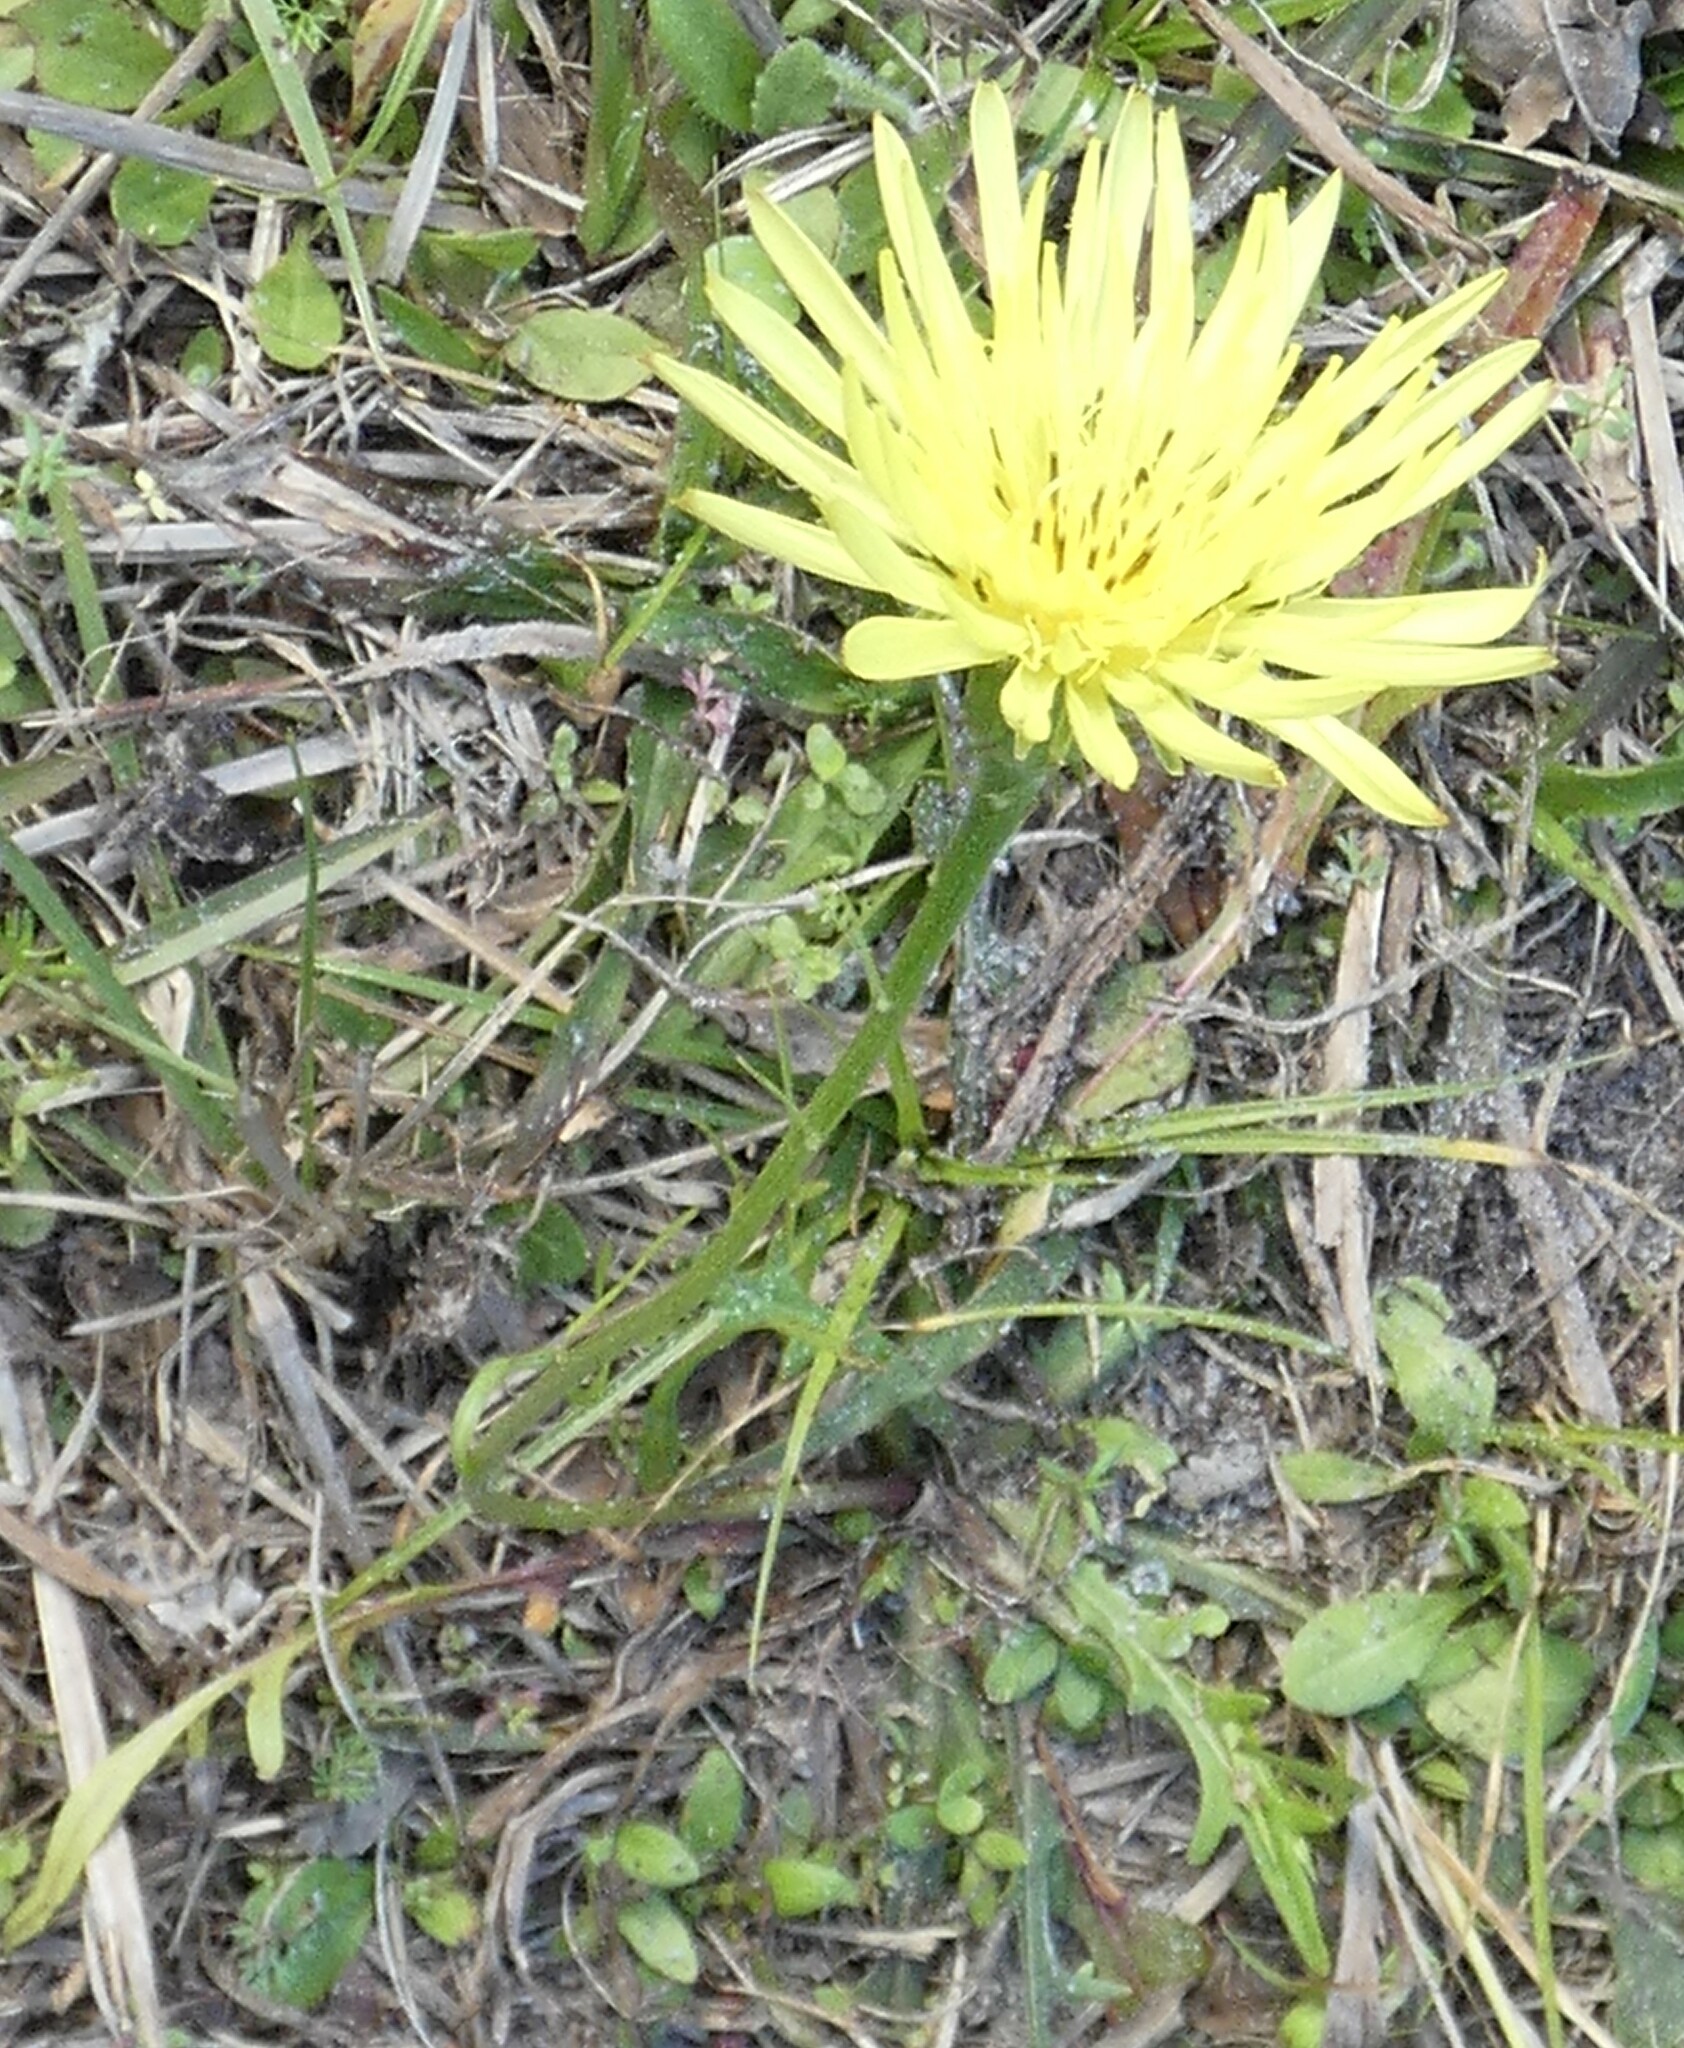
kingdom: Plantae
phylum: Tracheophyta
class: Magnoliopsida
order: Asterales
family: Asteraceae
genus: Pyrrhopappus
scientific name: Pyrrhopappus carolinianus
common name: Carolina desert-chicory
